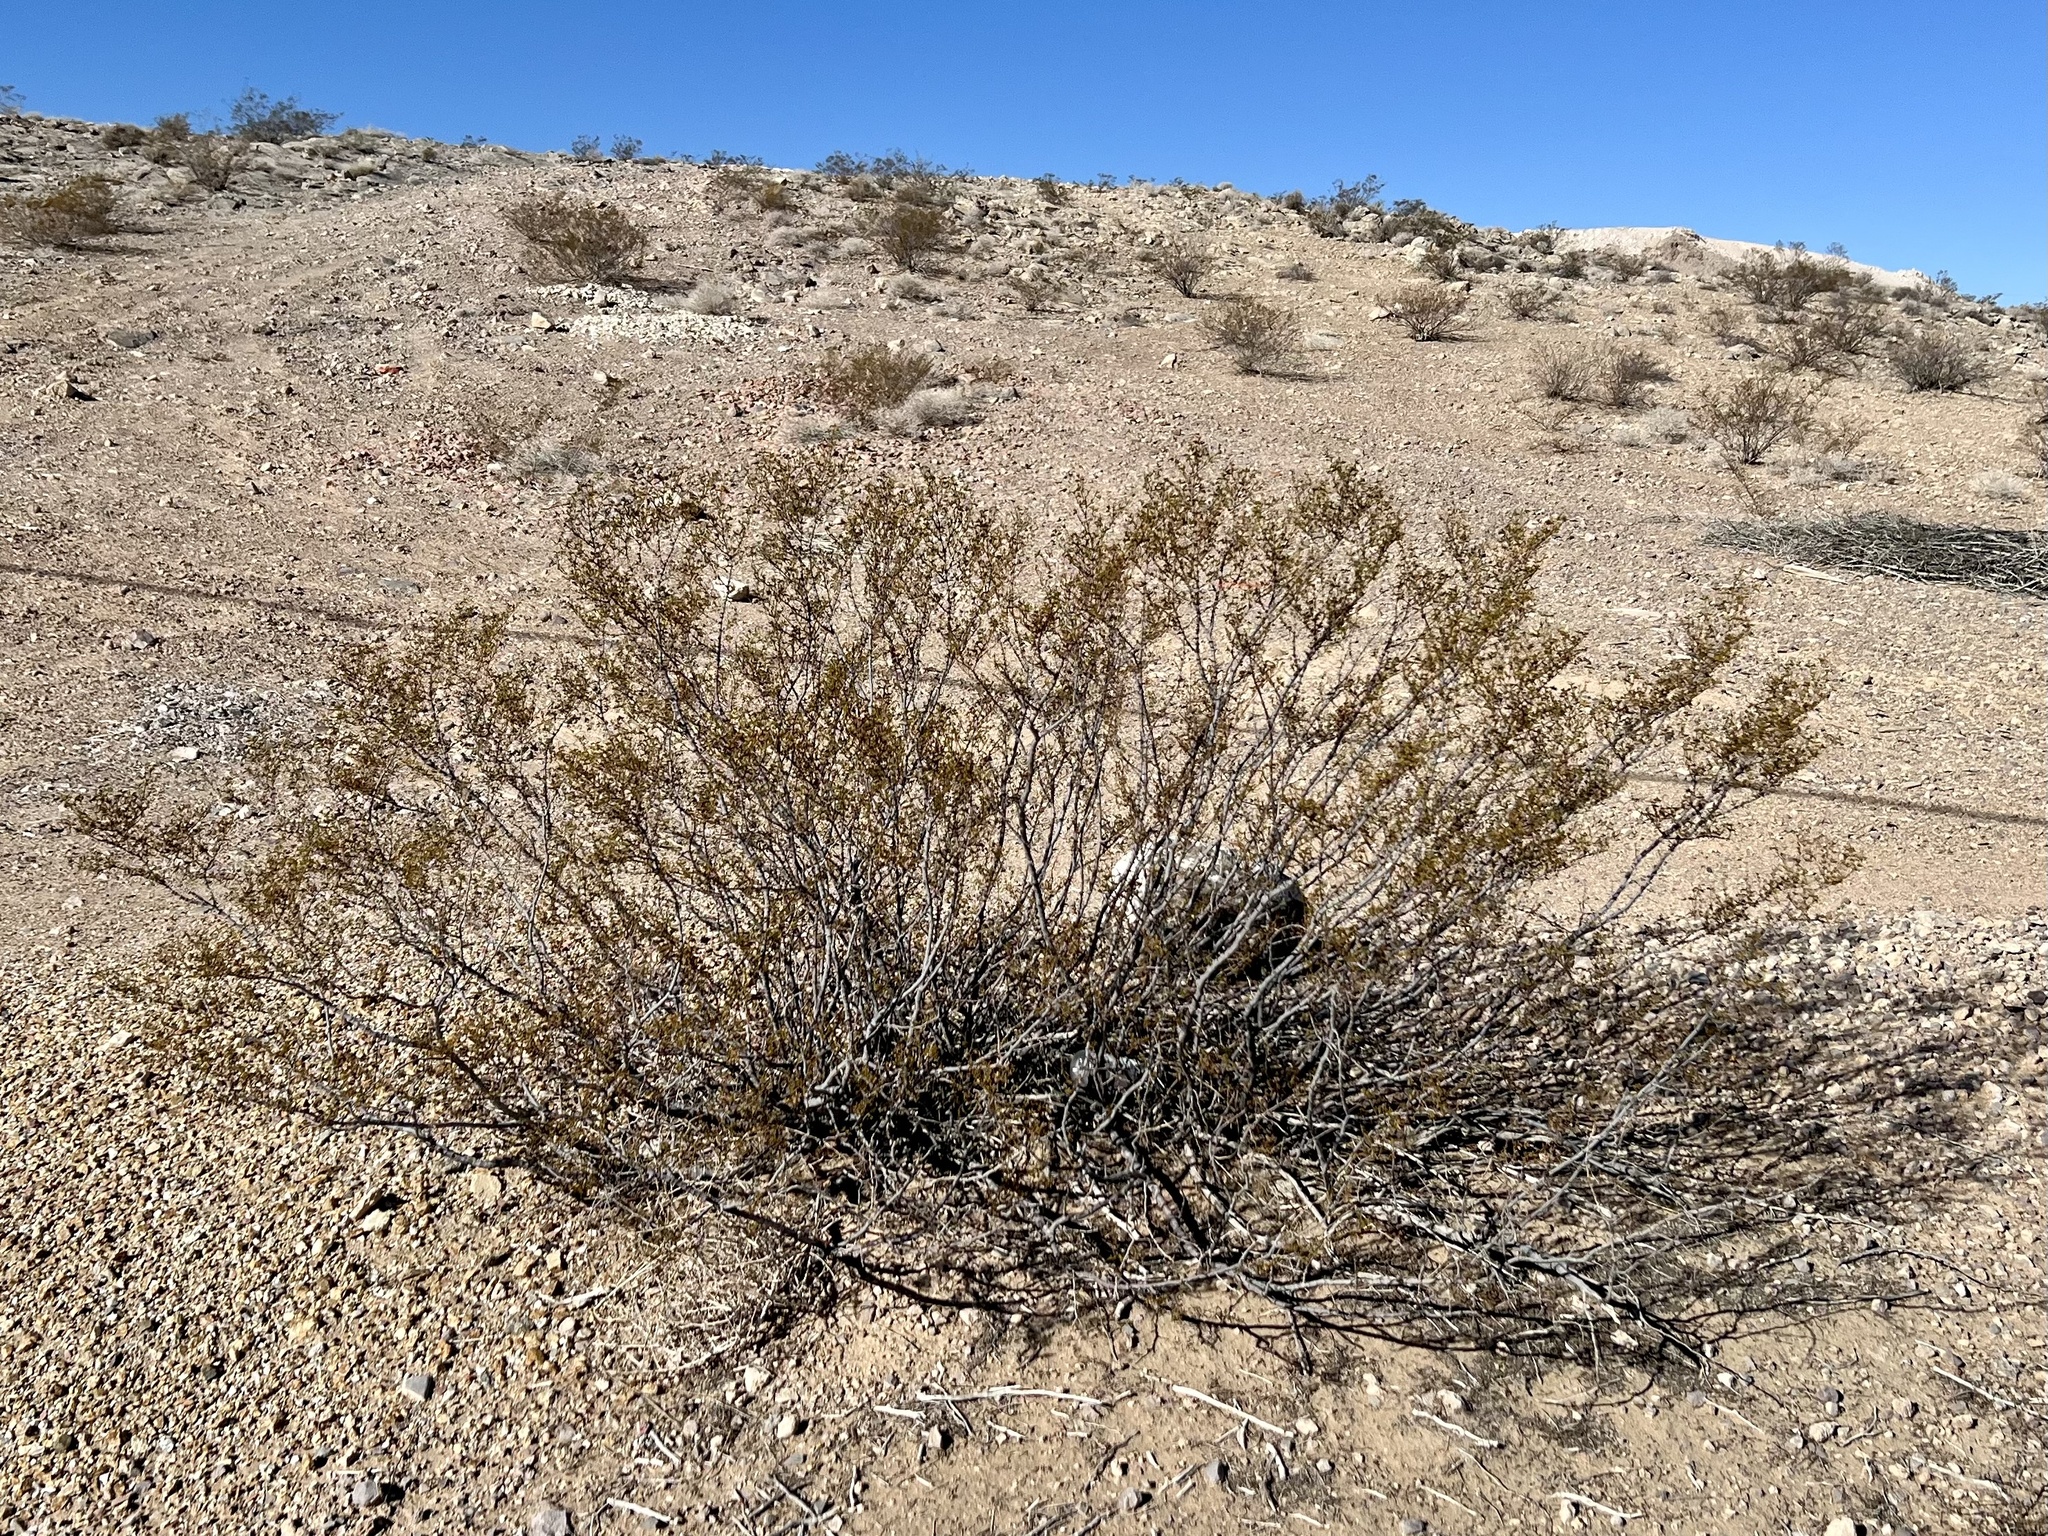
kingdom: Plantae
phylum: Tracheophyta
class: Magnoliopsida
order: Zygophyllales
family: Zygophyllaceae
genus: Larrea
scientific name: Larrea tridentata
